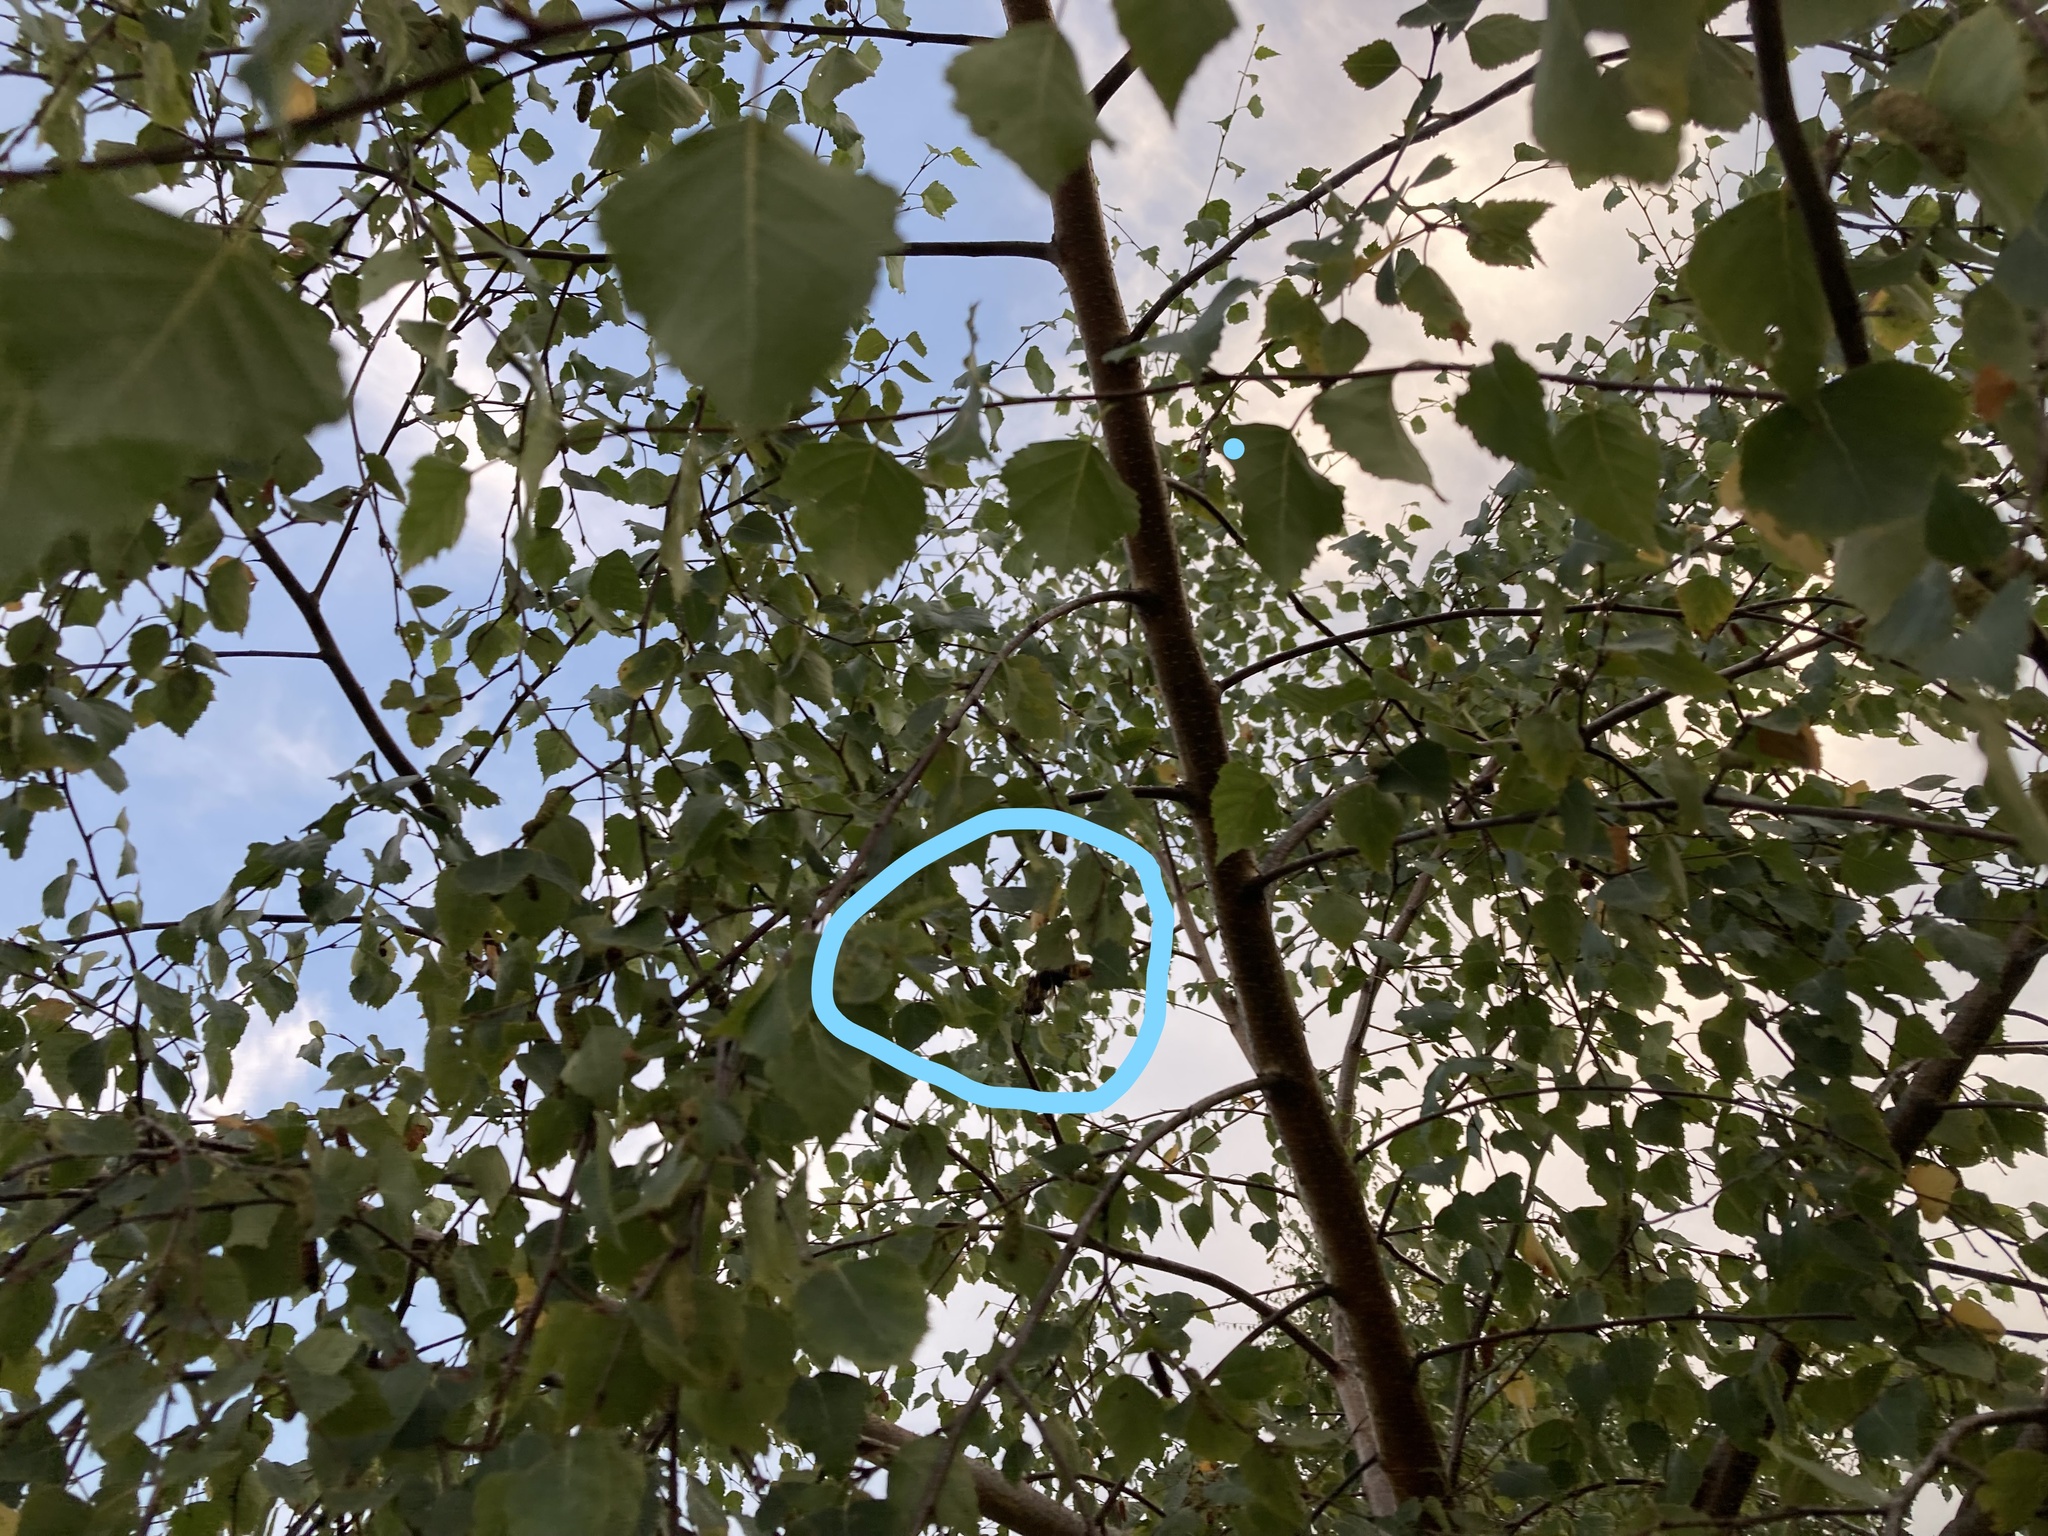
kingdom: Animalia
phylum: Arthropoda
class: Insecta
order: Hymenoptera
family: Vespidae
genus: Vespa
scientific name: Vespa velutina
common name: Asian hornet
